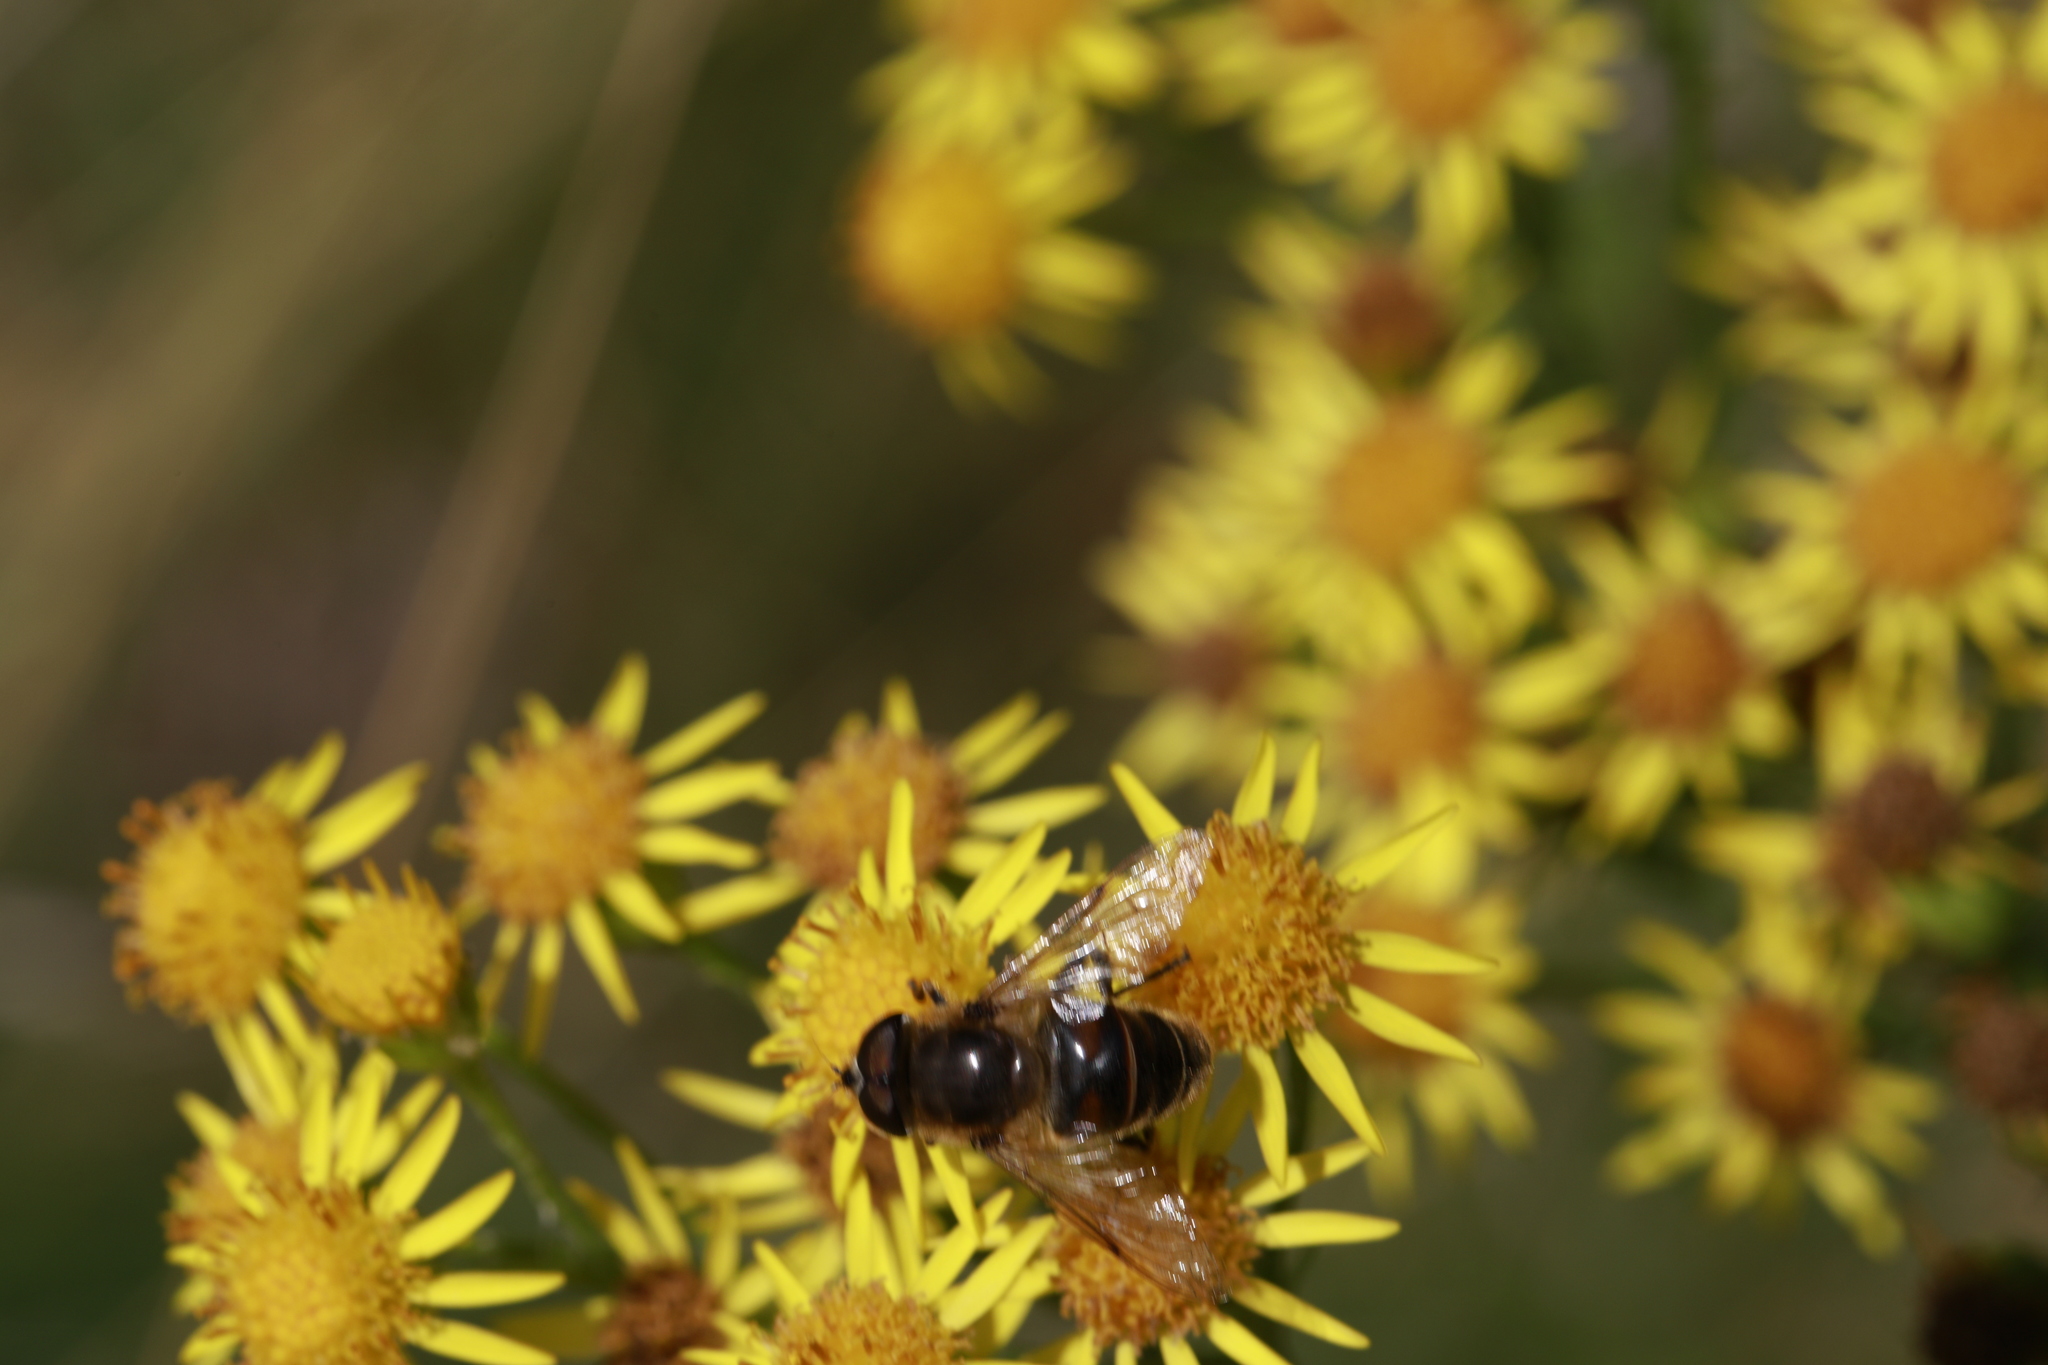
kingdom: Animalia
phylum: Arthropoda
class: Insecta
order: Diptera
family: Syrphidae
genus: Eristalis
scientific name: Eristalis tenax
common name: Drone fly
